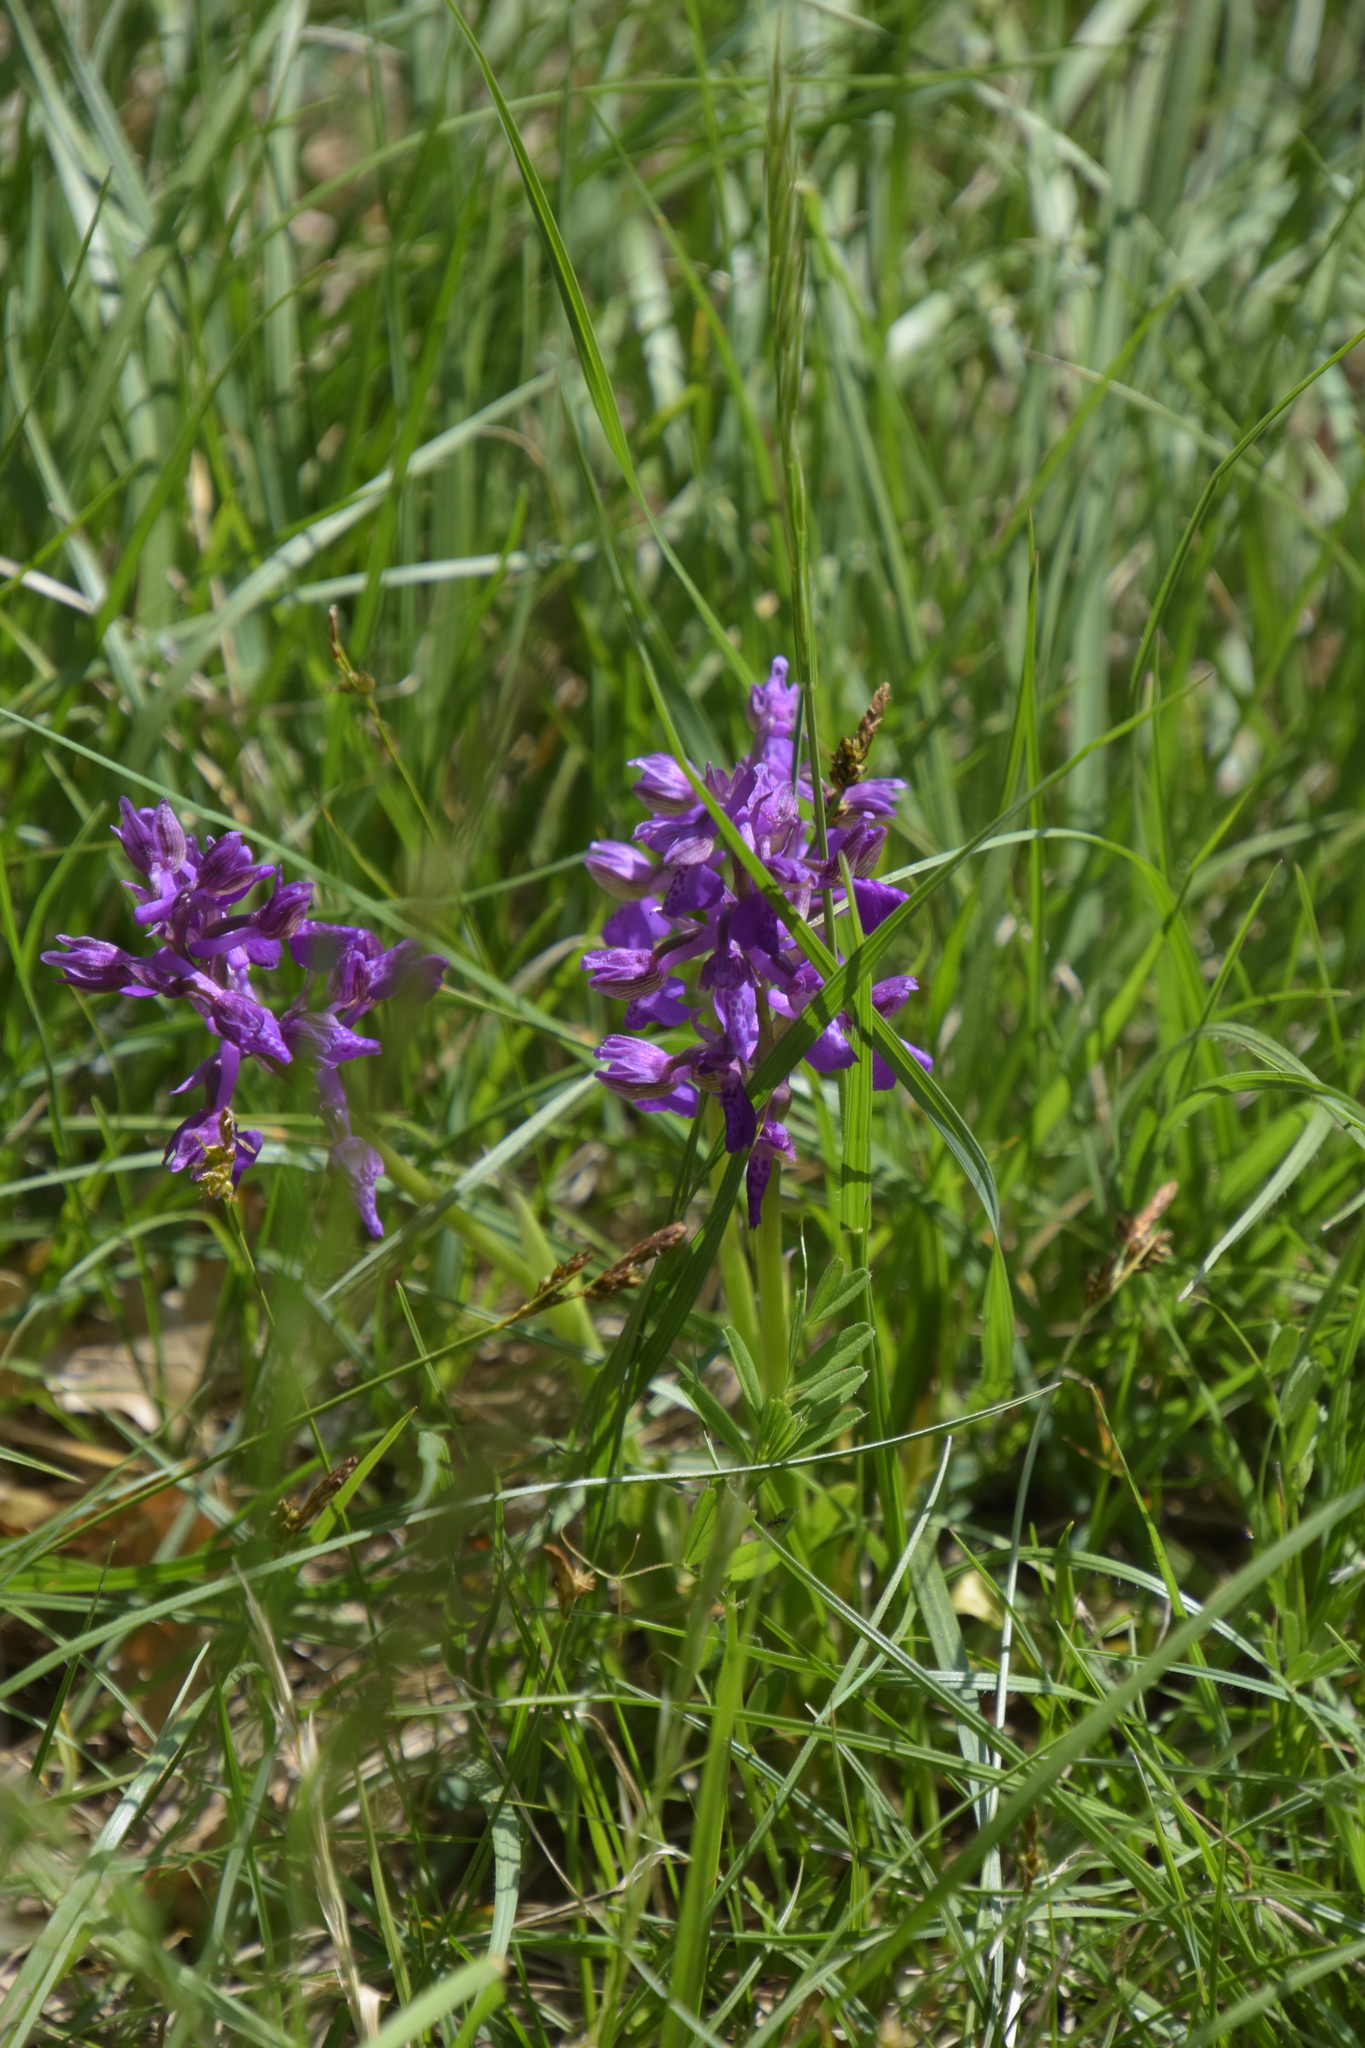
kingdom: Plantae
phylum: Tracheophyta
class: Liliopsida
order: Asparagales
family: Orchidaceae
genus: Anacamptis
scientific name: Anacamptis morio
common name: Green-winged orchid
